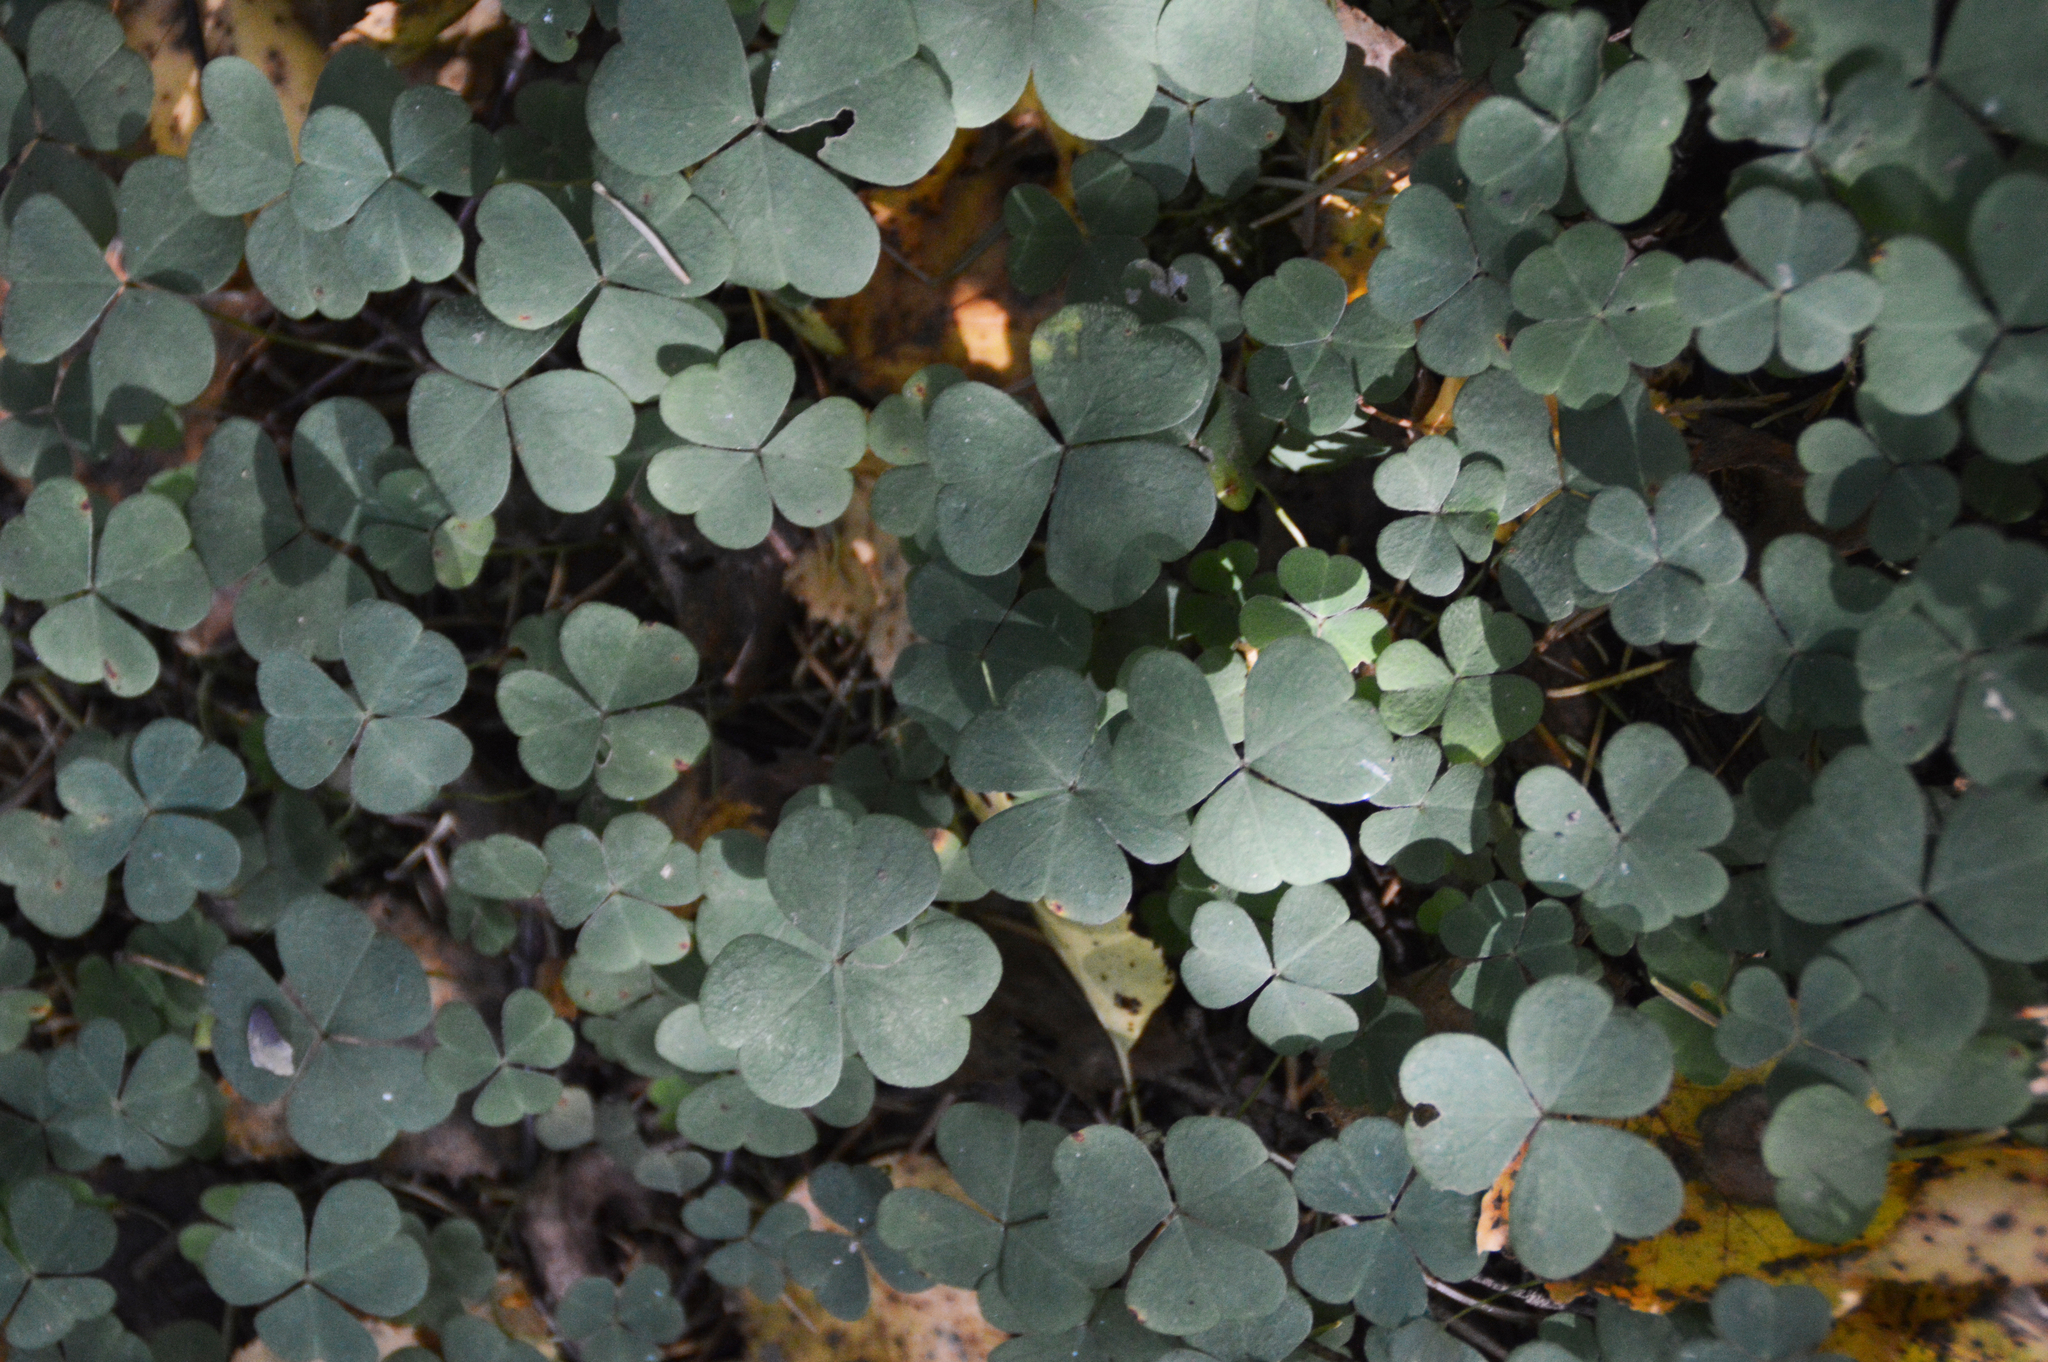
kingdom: Plantae
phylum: Tracheophyta
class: Magnoliopsida
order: Oxalidales
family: Oxalidaceae
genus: Oxalis
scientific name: Oxalis acetosella
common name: Wood-sorrel
